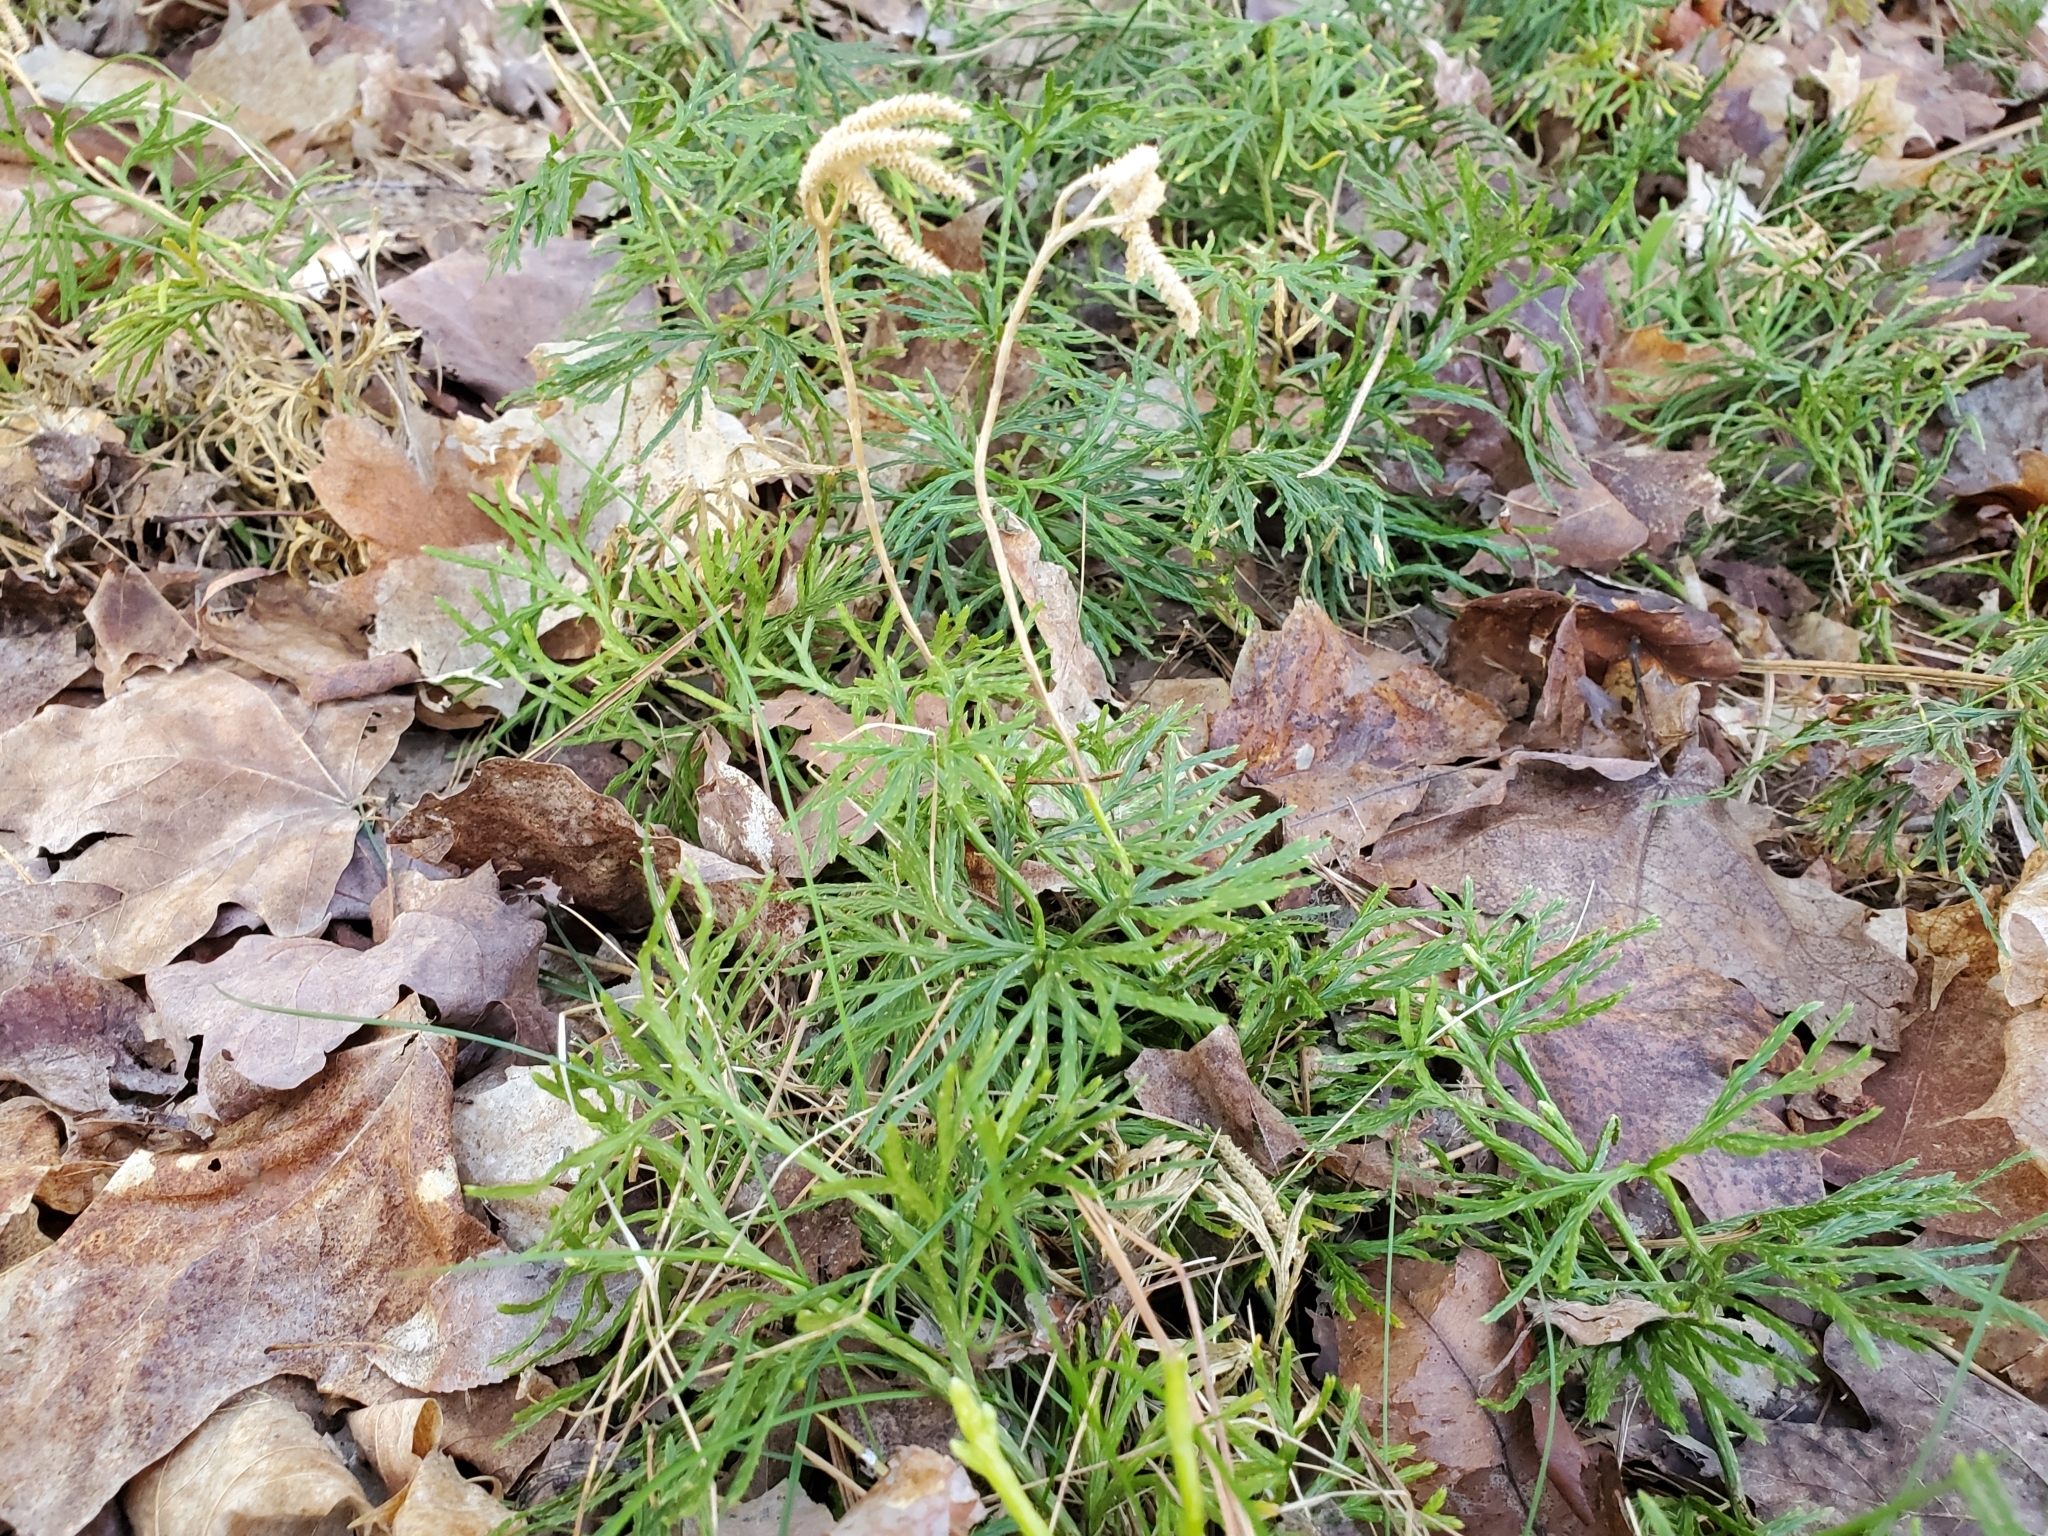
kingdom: Plantae
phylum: Tracheophyta
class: Lycopodiopsida
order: Lycopodiales
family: Lycopodiaceae
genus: Diphasiastrum
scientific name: Diphasiastrum digitatum
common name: Southern running-pine
